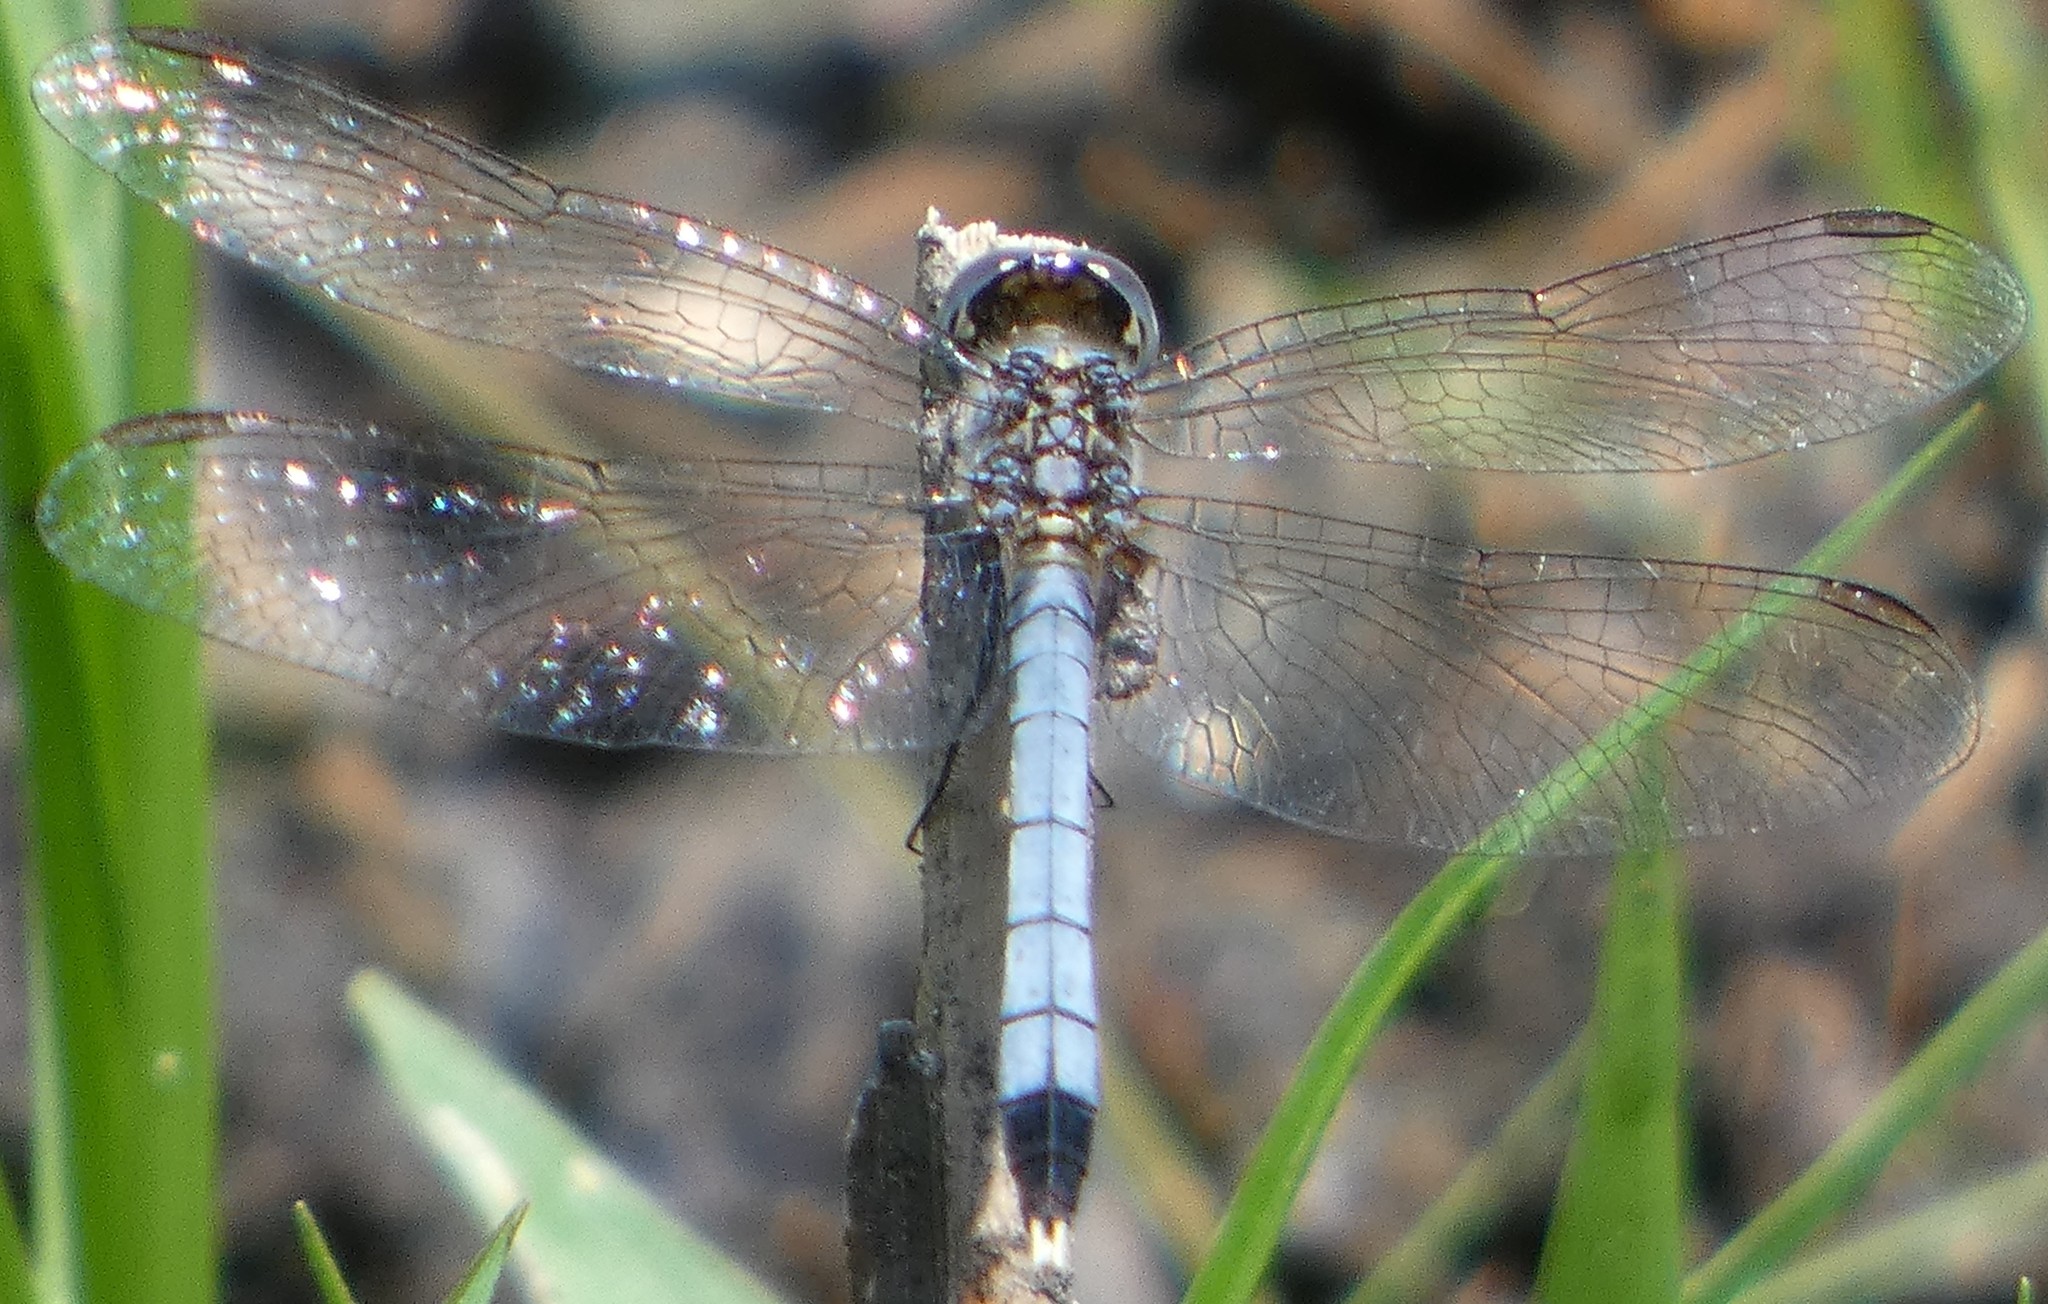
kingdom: Animalia
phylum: Arthropoda
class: Insecta
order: Odonata
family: Libellulidae
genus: Erythrodiplax
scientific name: Erythrodiplax minuscula
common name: Little blue dragonlet
